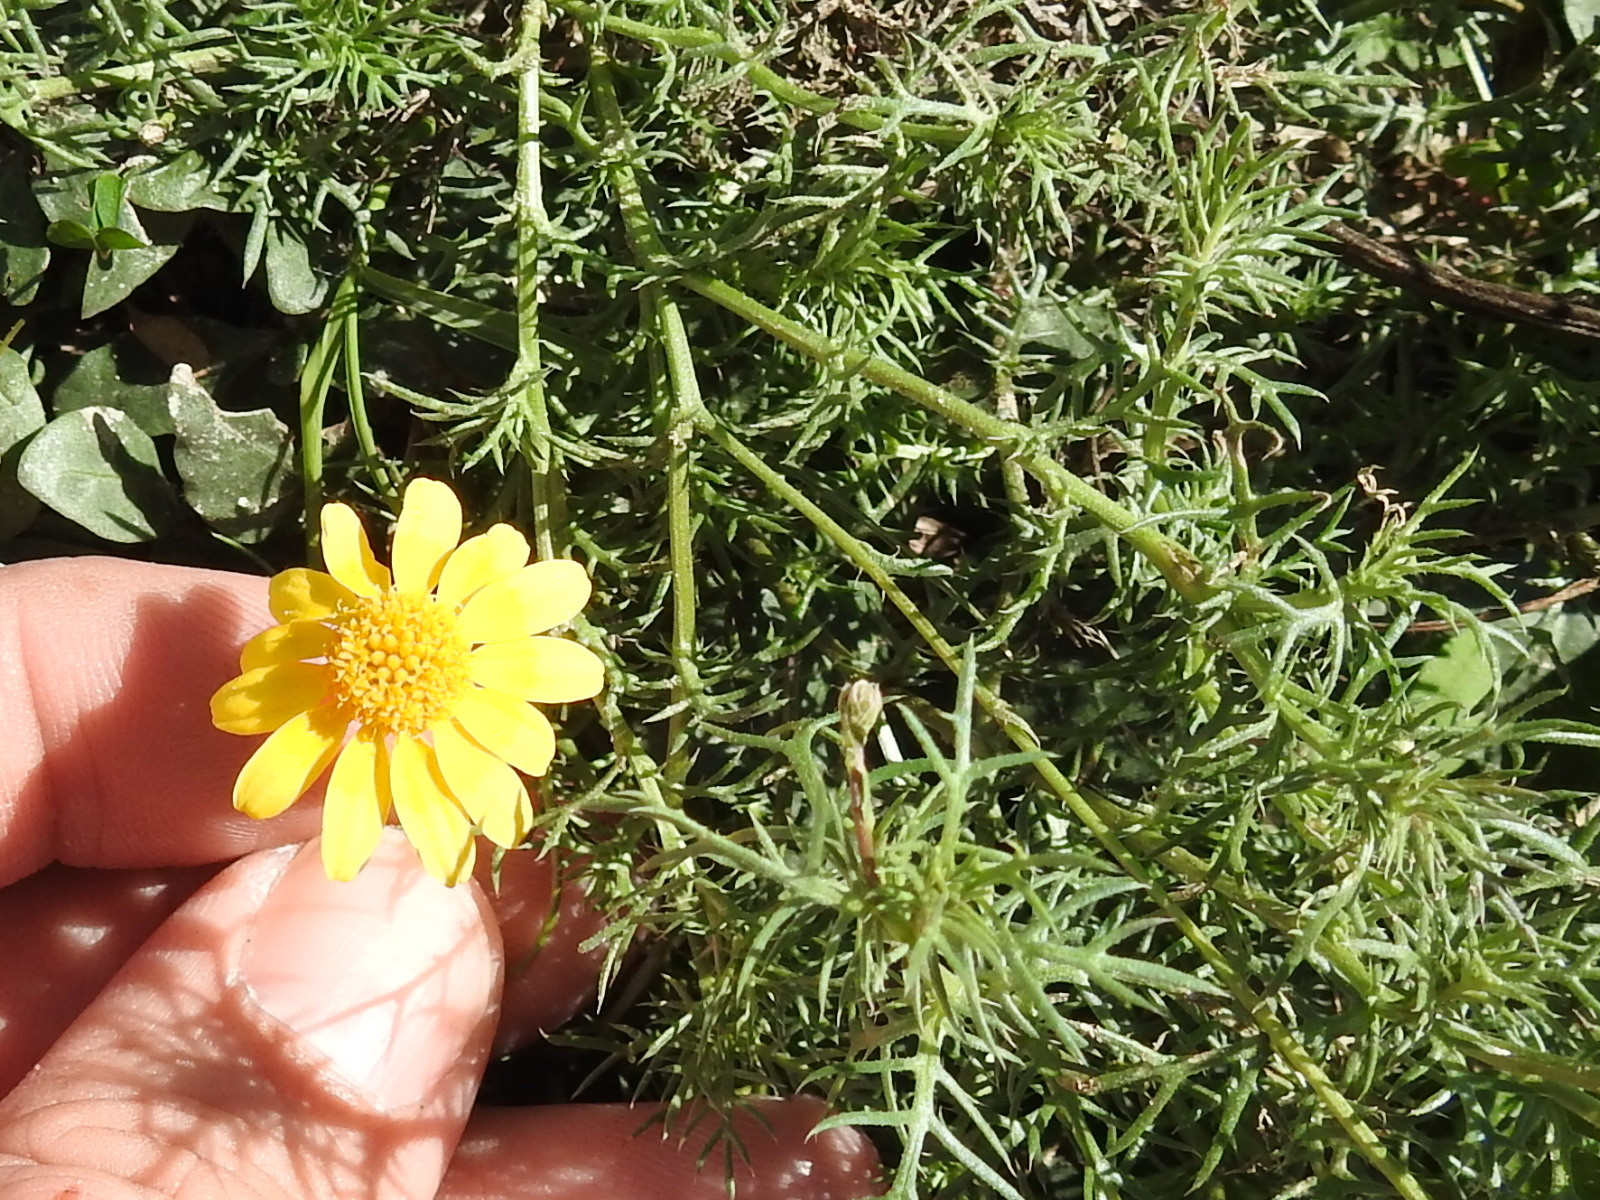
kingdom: Plantae
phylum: Tracheophyta
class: Magnoliopsida
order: Asterales
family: Asteraceae
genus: Thymophylla
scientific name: Thymophylla pentachaeta
